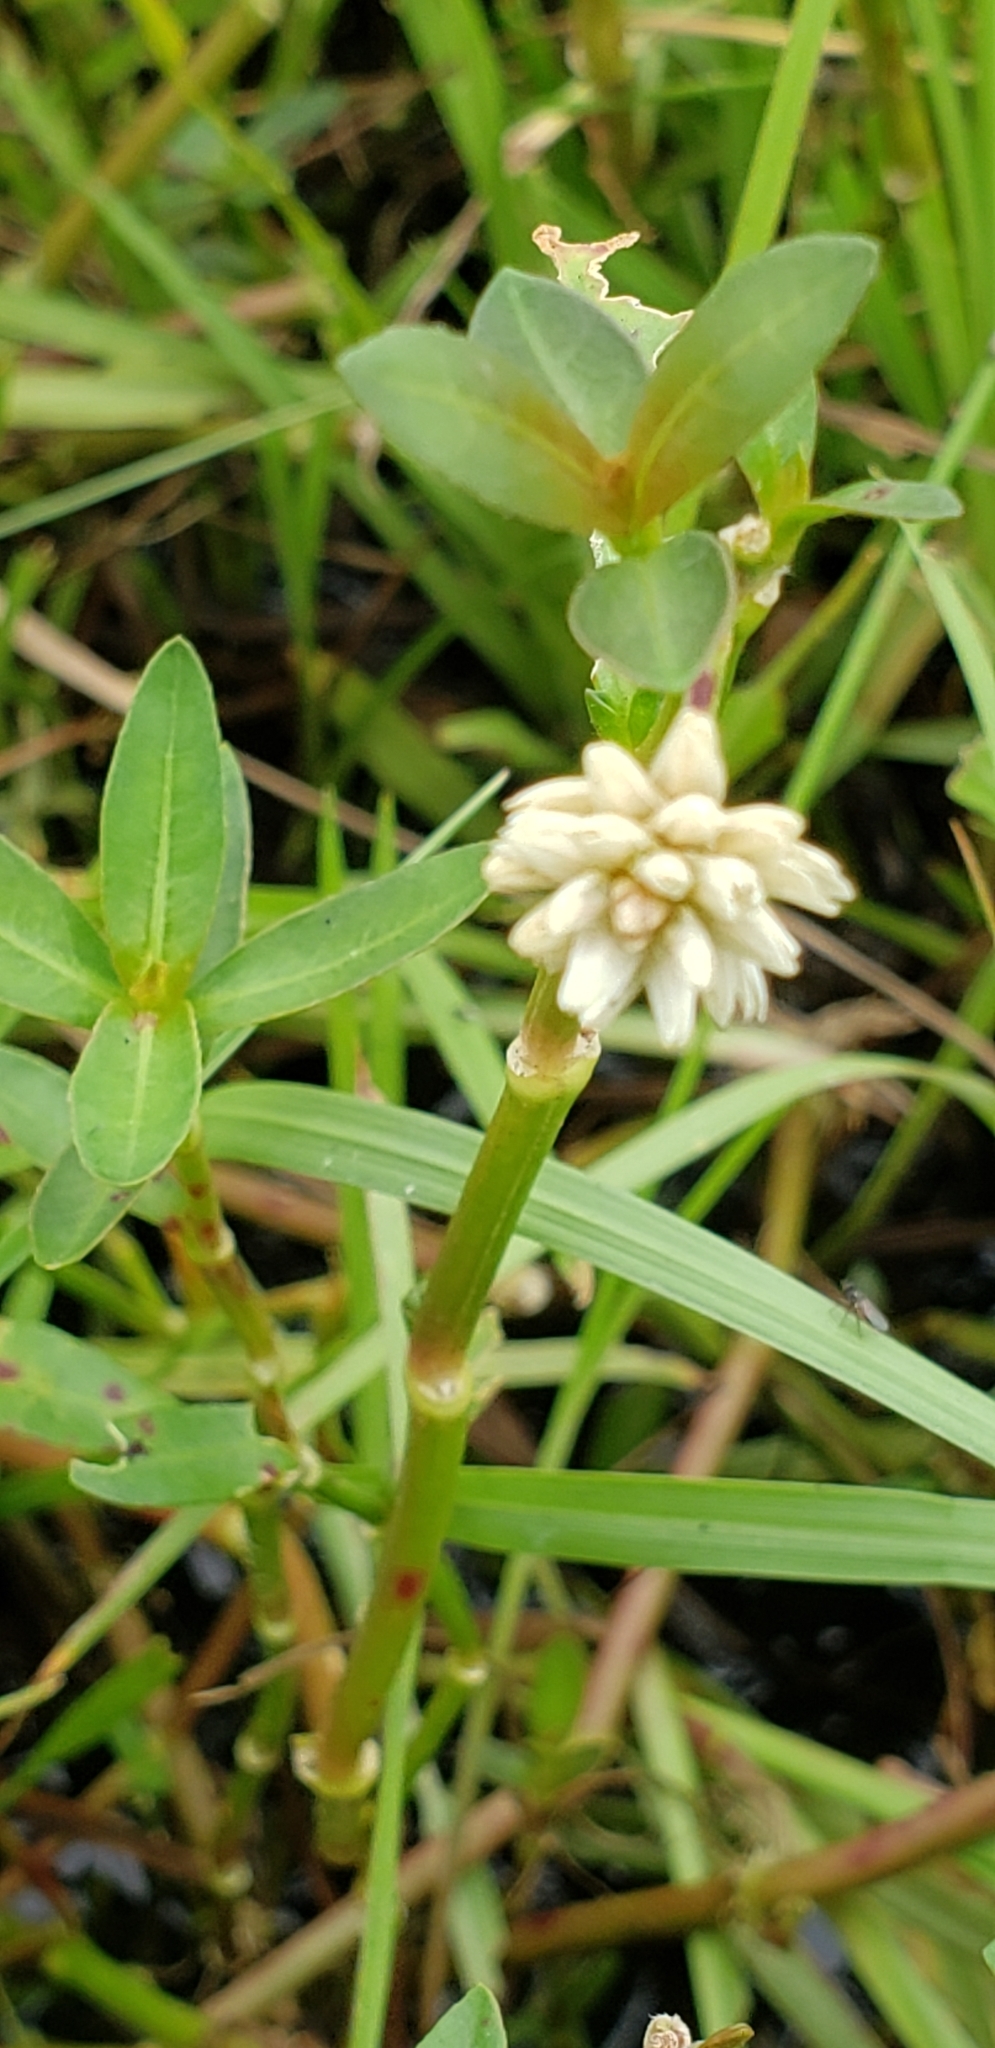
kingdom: Plantae
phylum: Tracheophyta
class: Magnoliopsida
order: Caryophyllales
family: Amaranthaceae
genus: Alternanthera
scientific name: Alternanthera philoxeroides
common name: Alligatorweed
